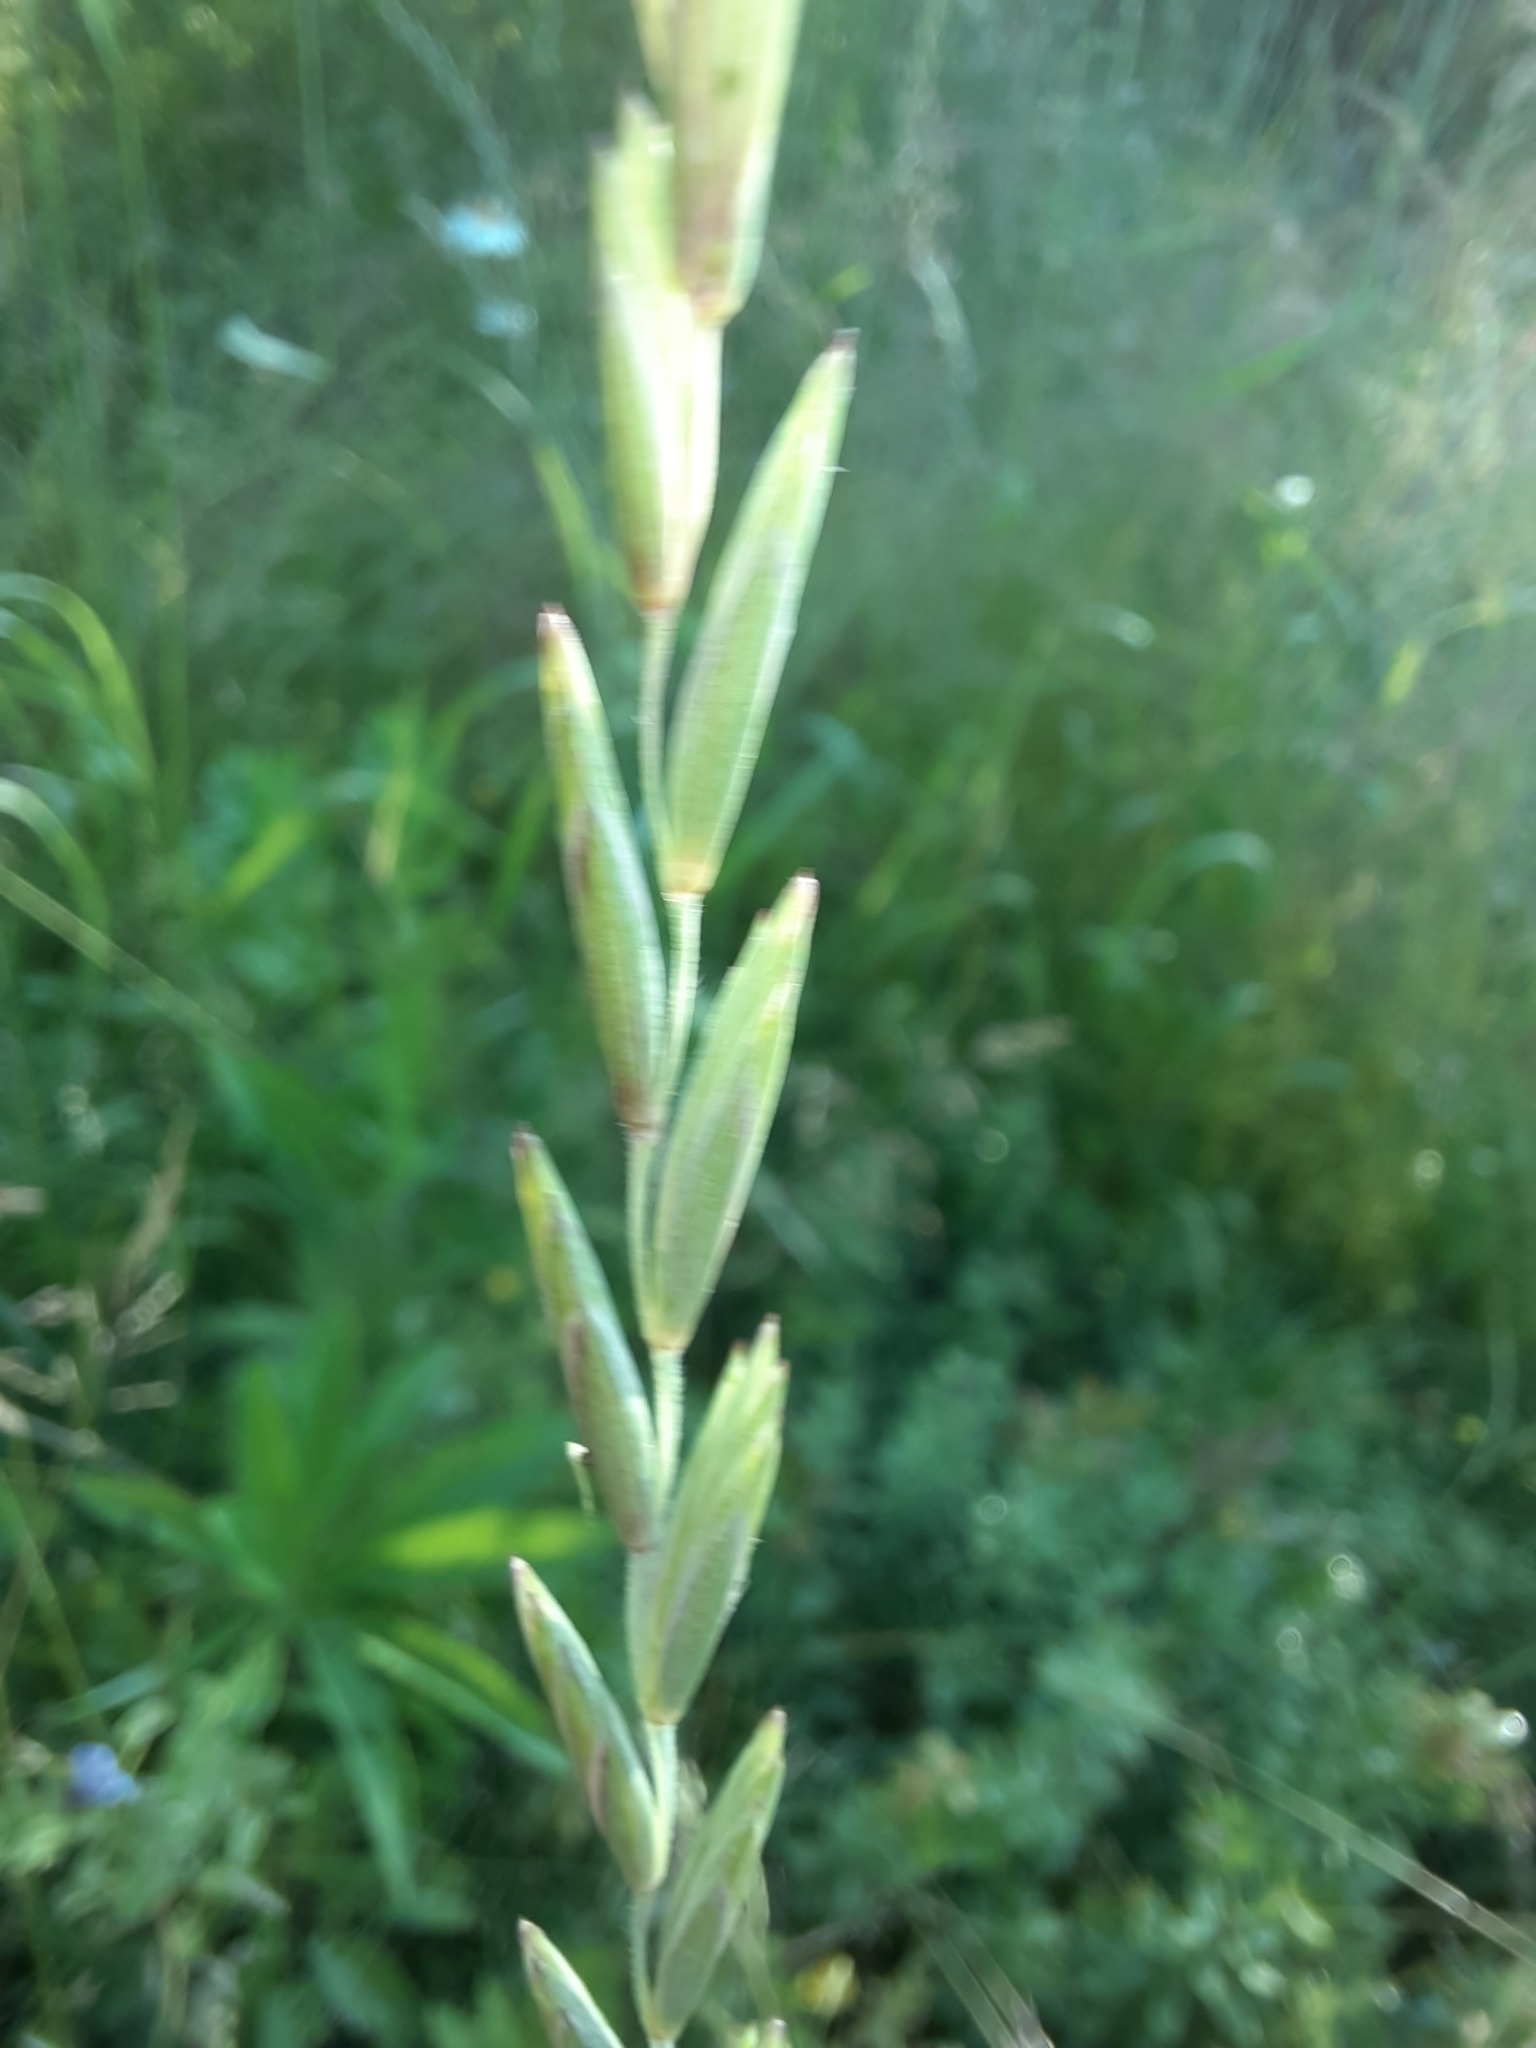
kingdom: Plantae
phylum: Tracheophyta
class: Liliopsida
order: Poales
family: Poaceae
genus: Elymus
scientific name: Elymus repens
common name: Quackgrass
